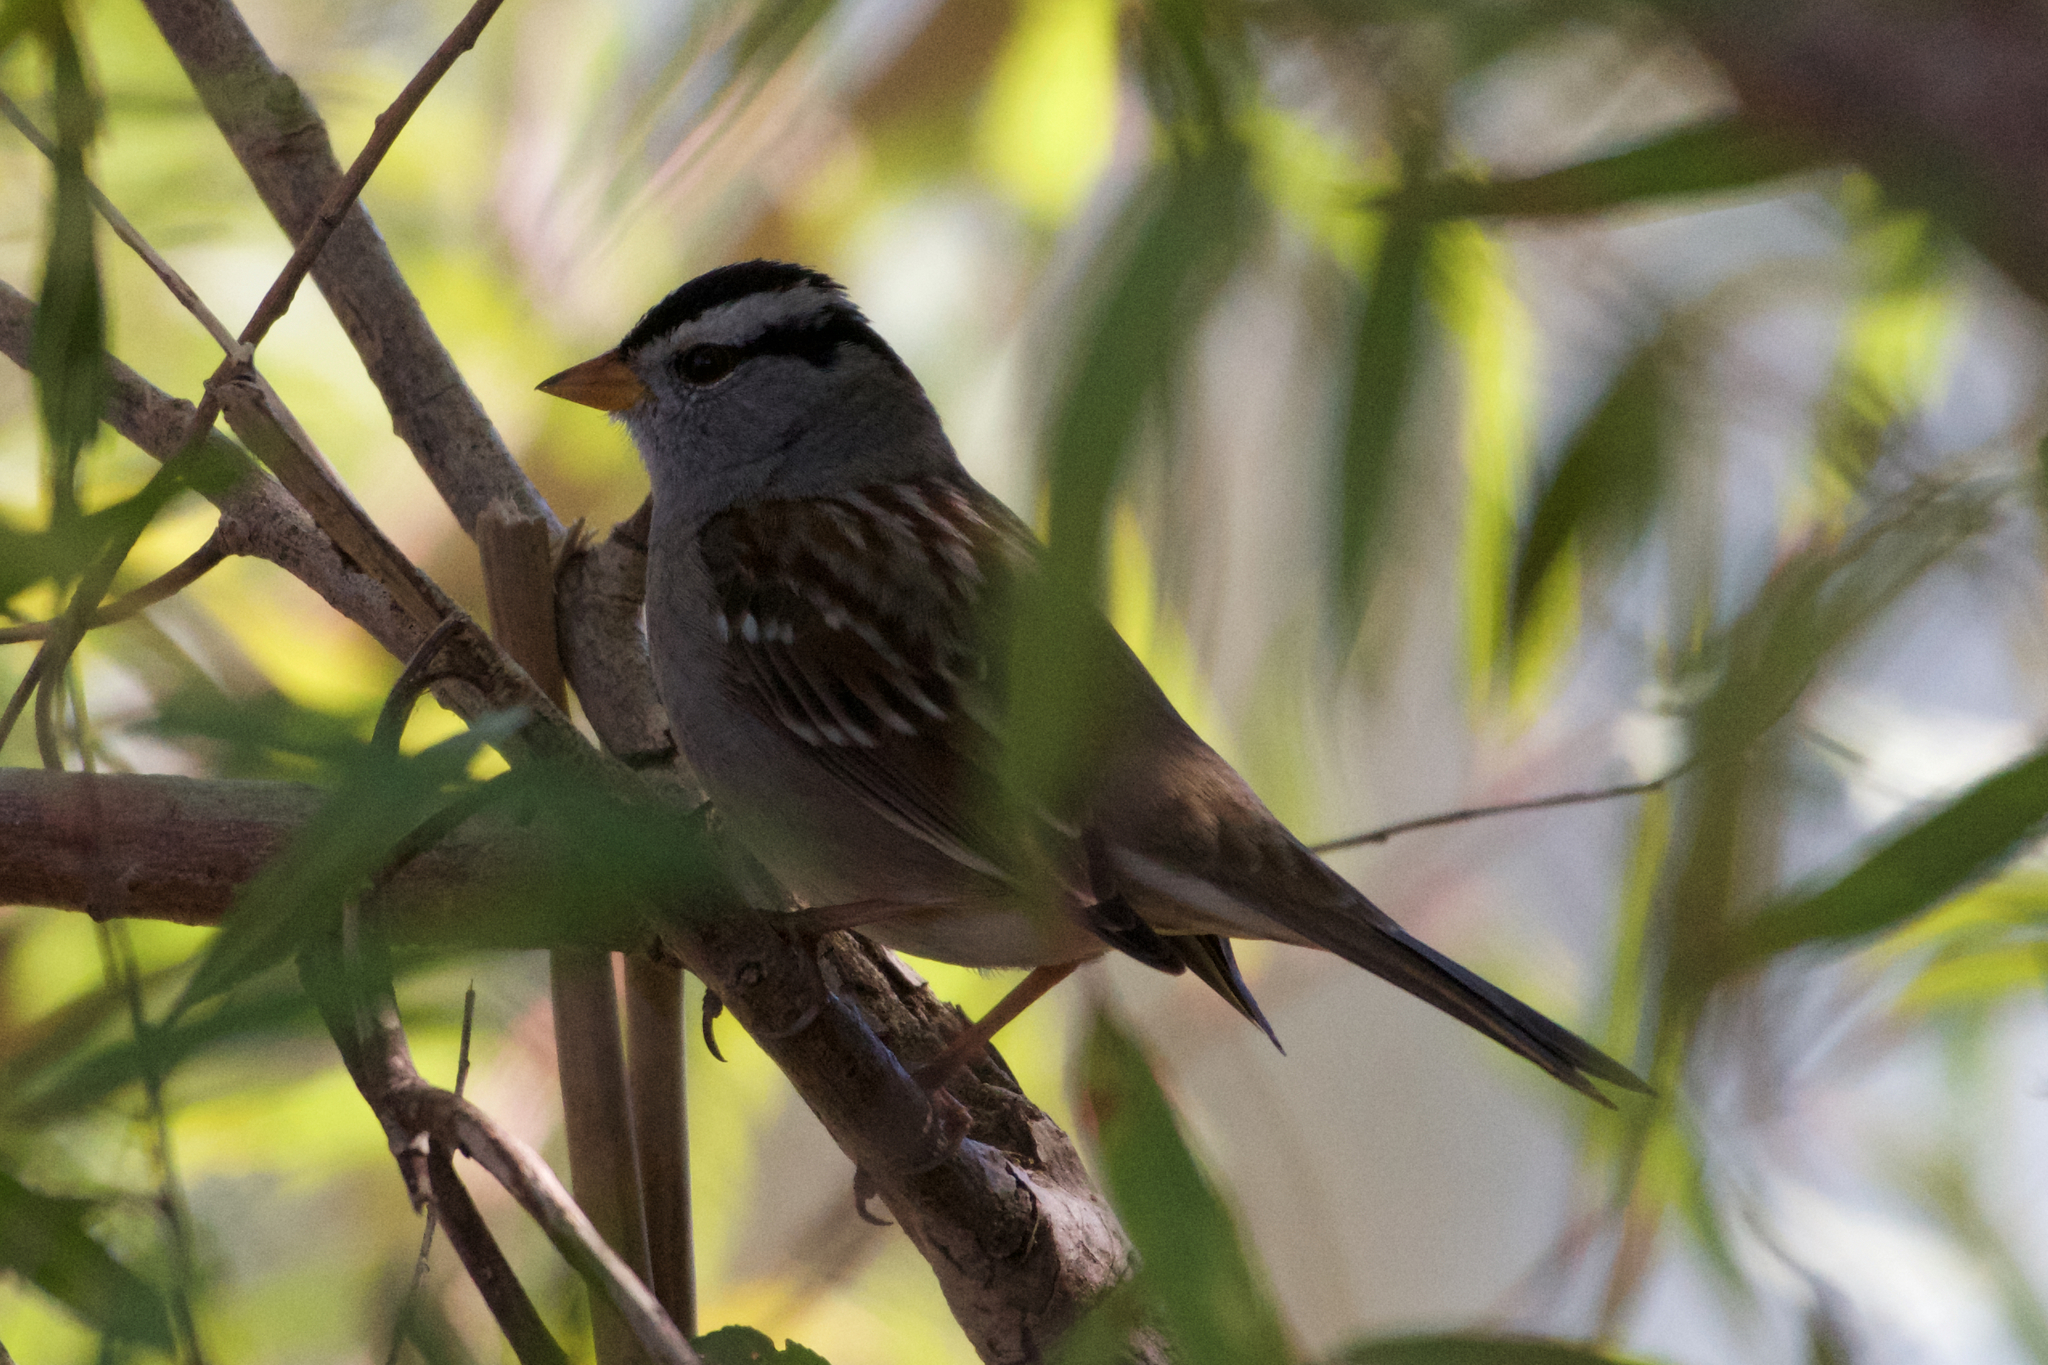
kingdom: Animalia
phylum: Chordata
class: Aves
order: Passeriformes
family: Passerellidae
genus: Zonotrichia
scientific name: Zonotrichia leucophrys
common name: White-crowned sparrow
